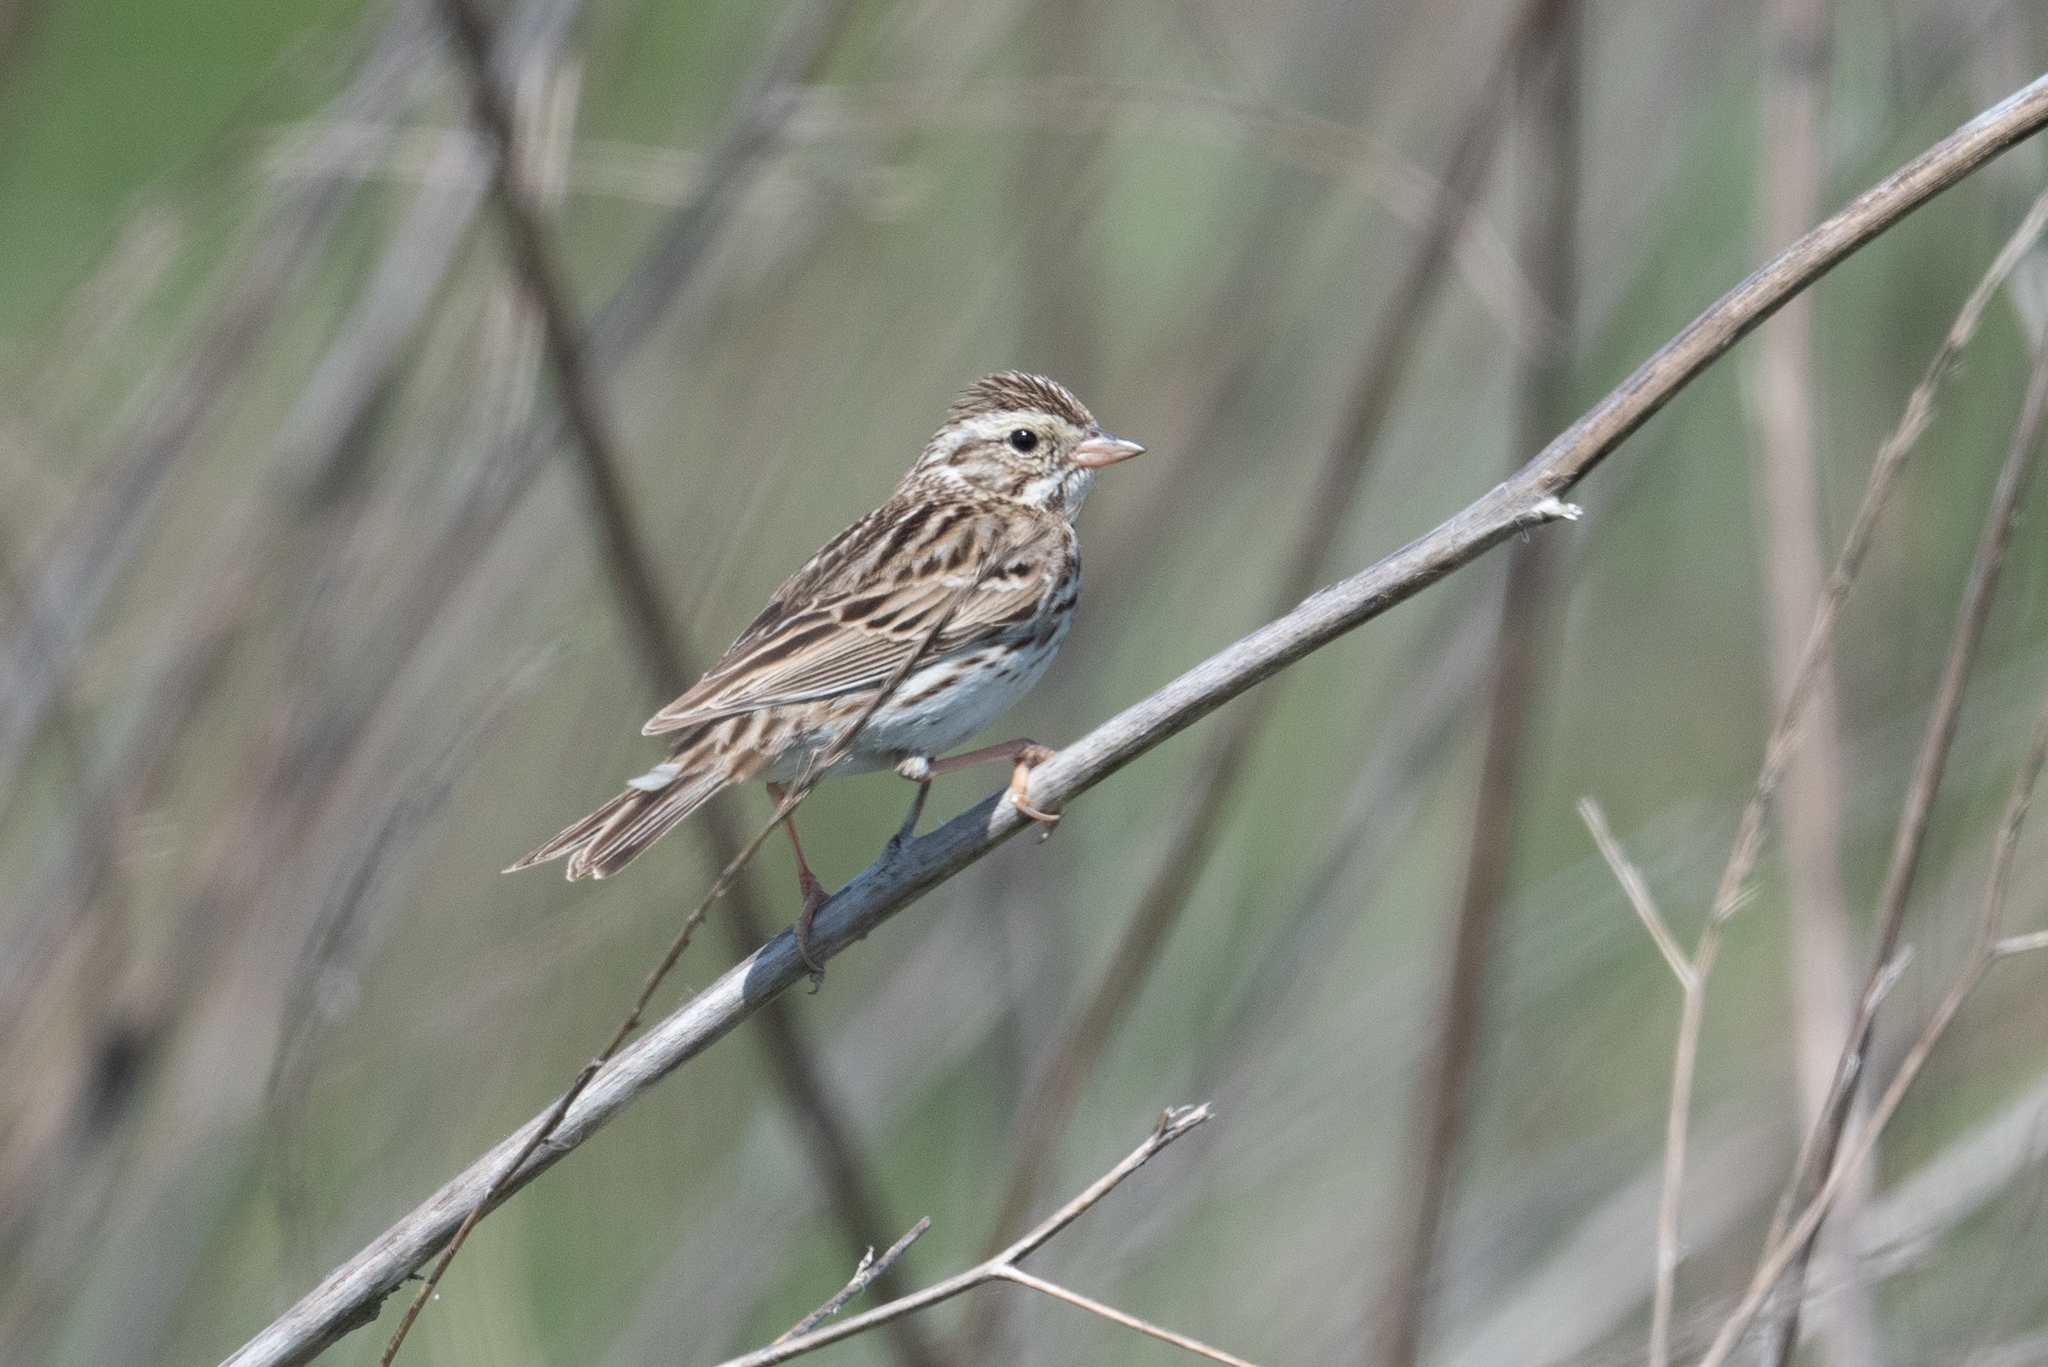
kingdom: Animalia
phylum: Chordata
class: Aves
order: Passeriformes
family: Passerellidae
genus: Passerculus
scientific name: Passerculus sandwichensis
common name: Savannah sparrow
